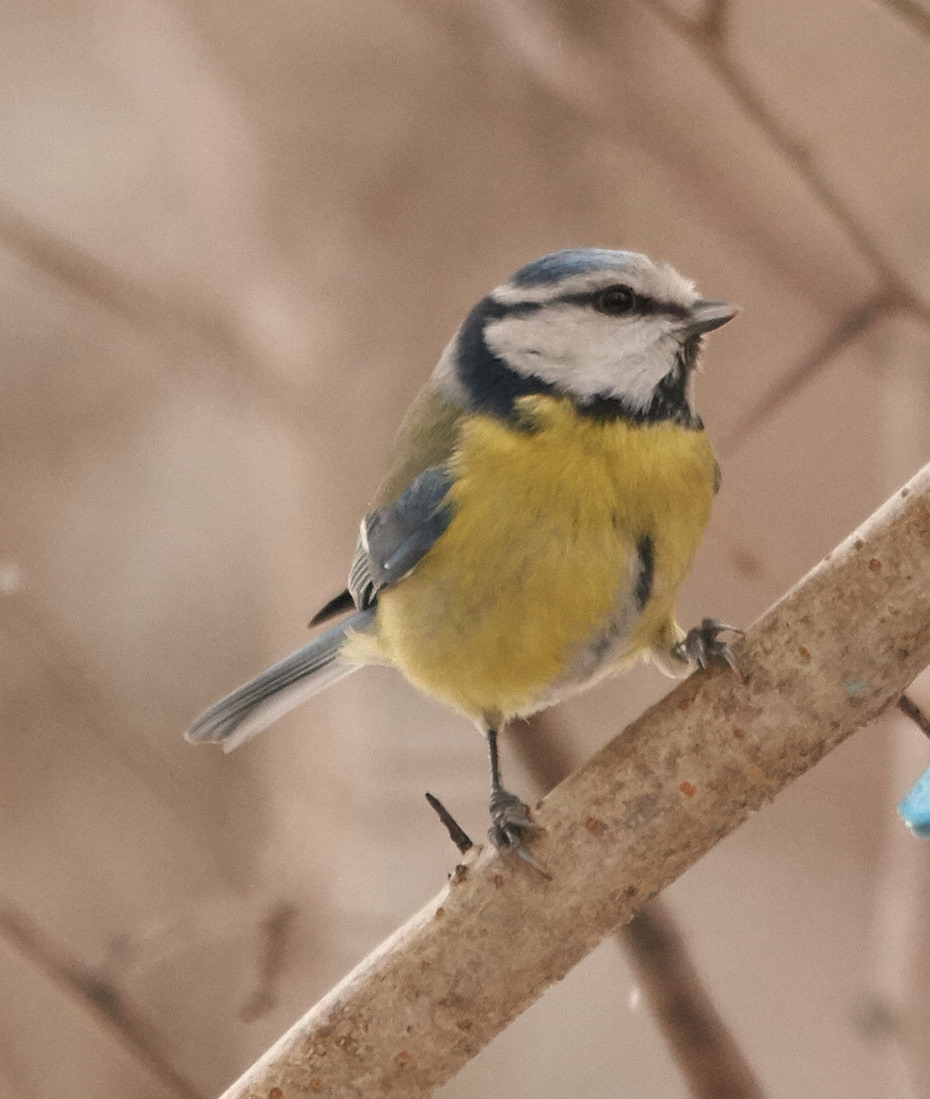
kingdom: Animalia
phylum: Chordata
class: Aves
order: Passeriformes
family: Paridae
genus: Cyanistes
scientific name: Cyanistes caeruleus
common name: Eurasian blue tit
